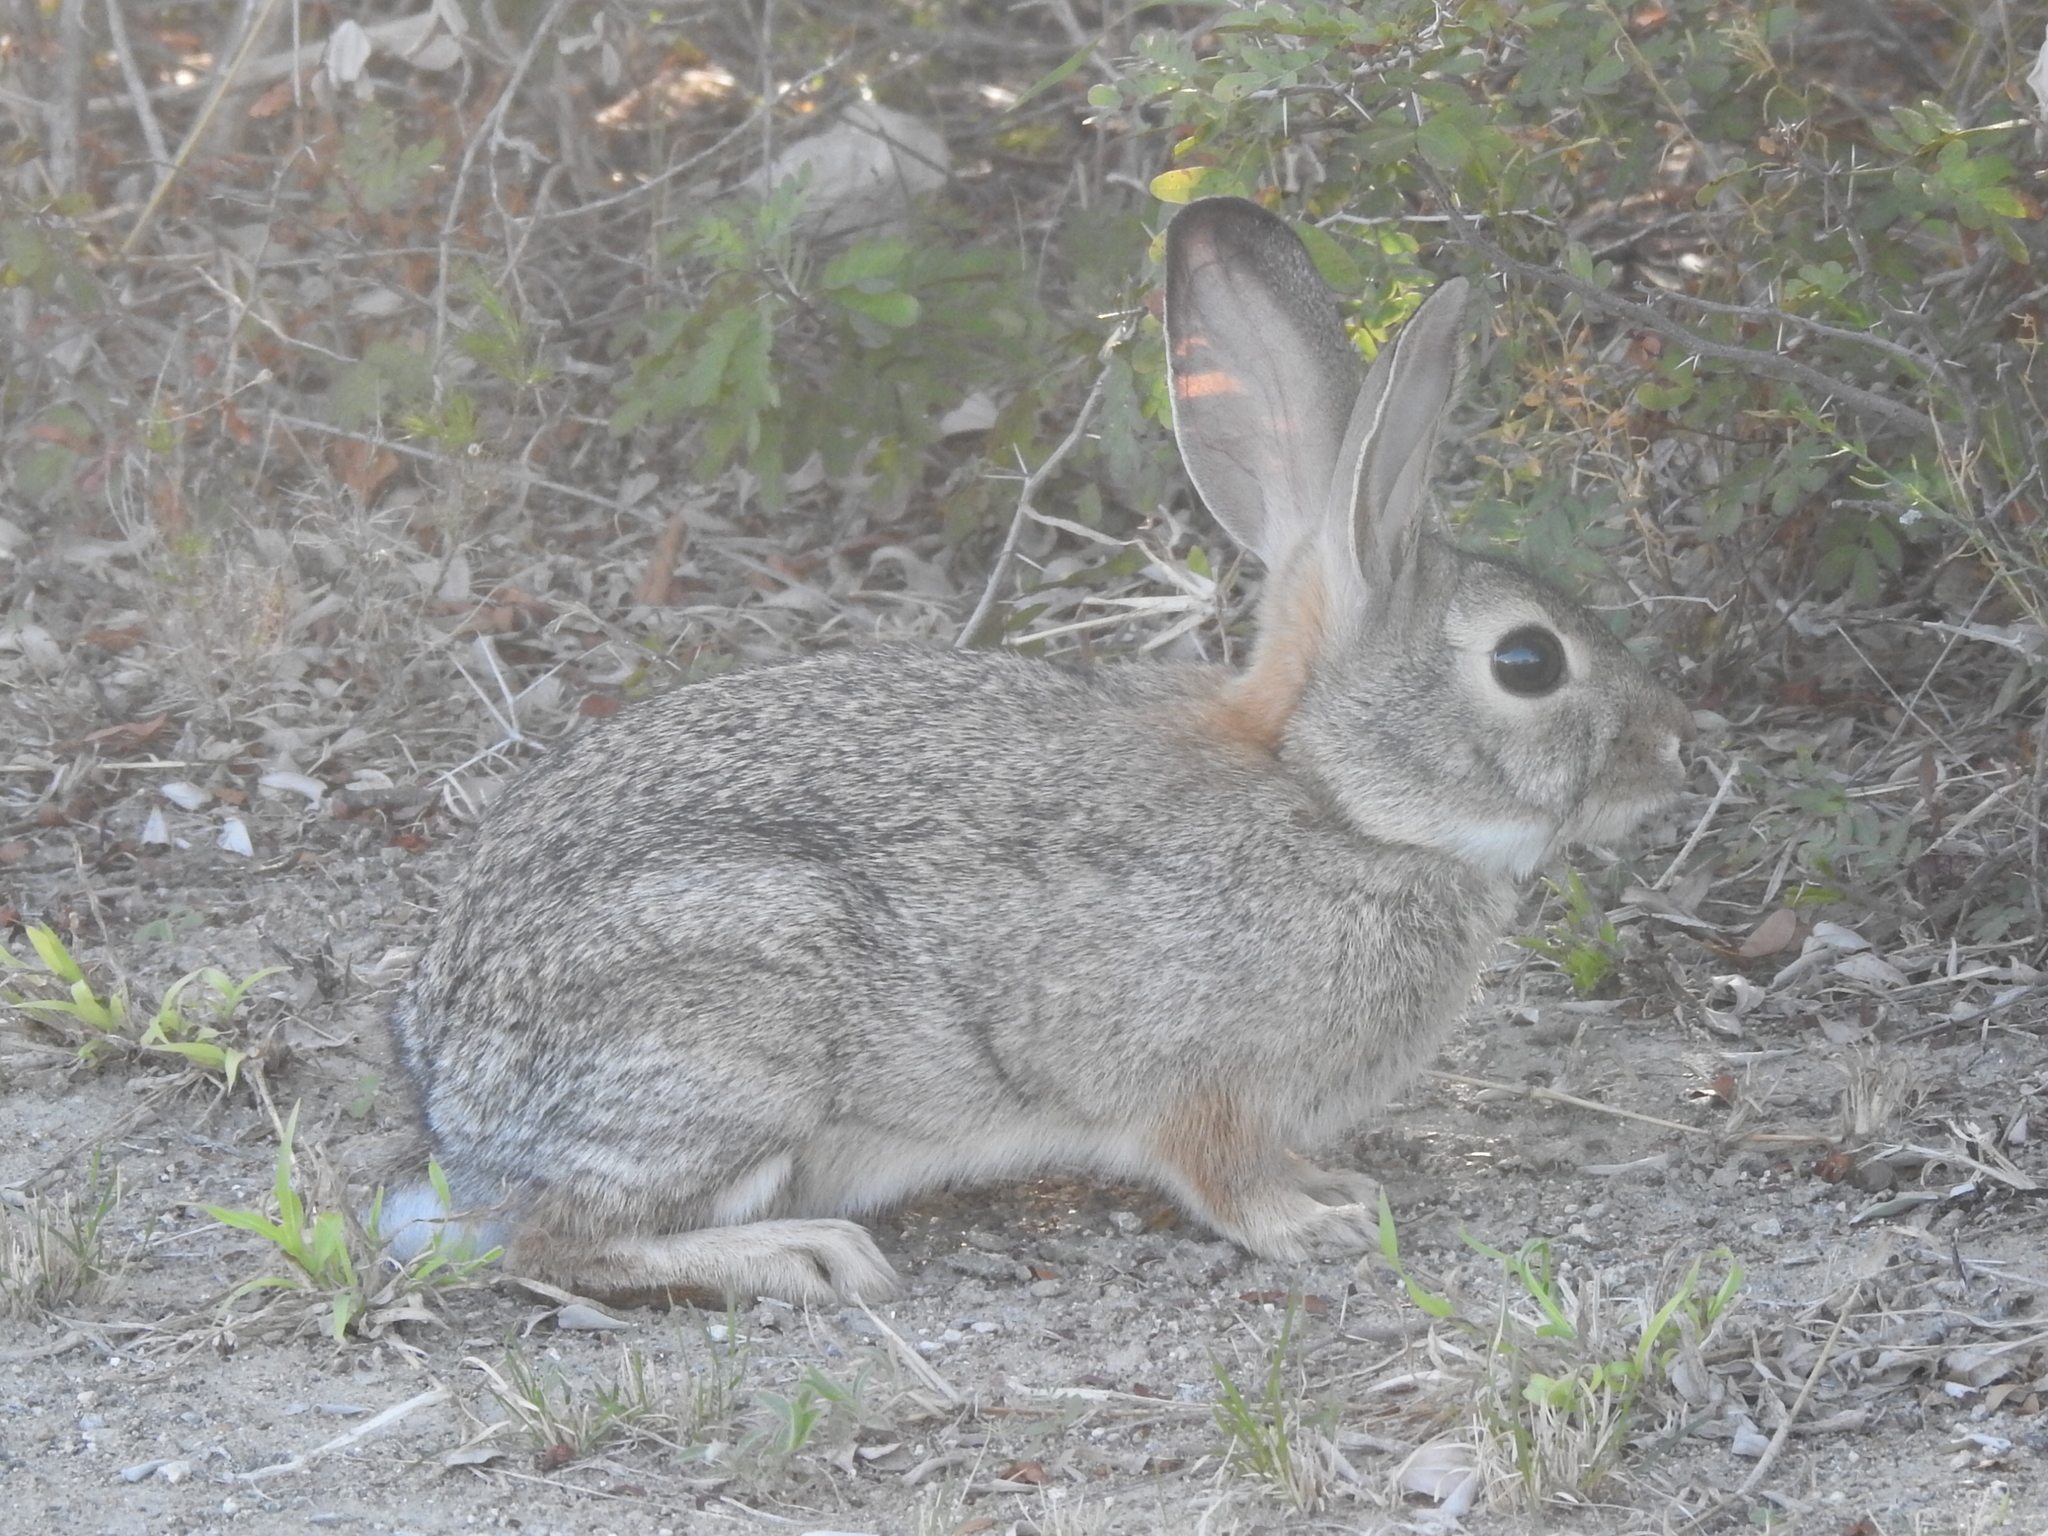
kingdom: Animalia
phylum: Chordata
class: Mammalia
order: Lagomorpha
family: Leporidae
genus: Sylvilagus
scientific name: Sylvilagus audubonii
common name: Desert cottontail
